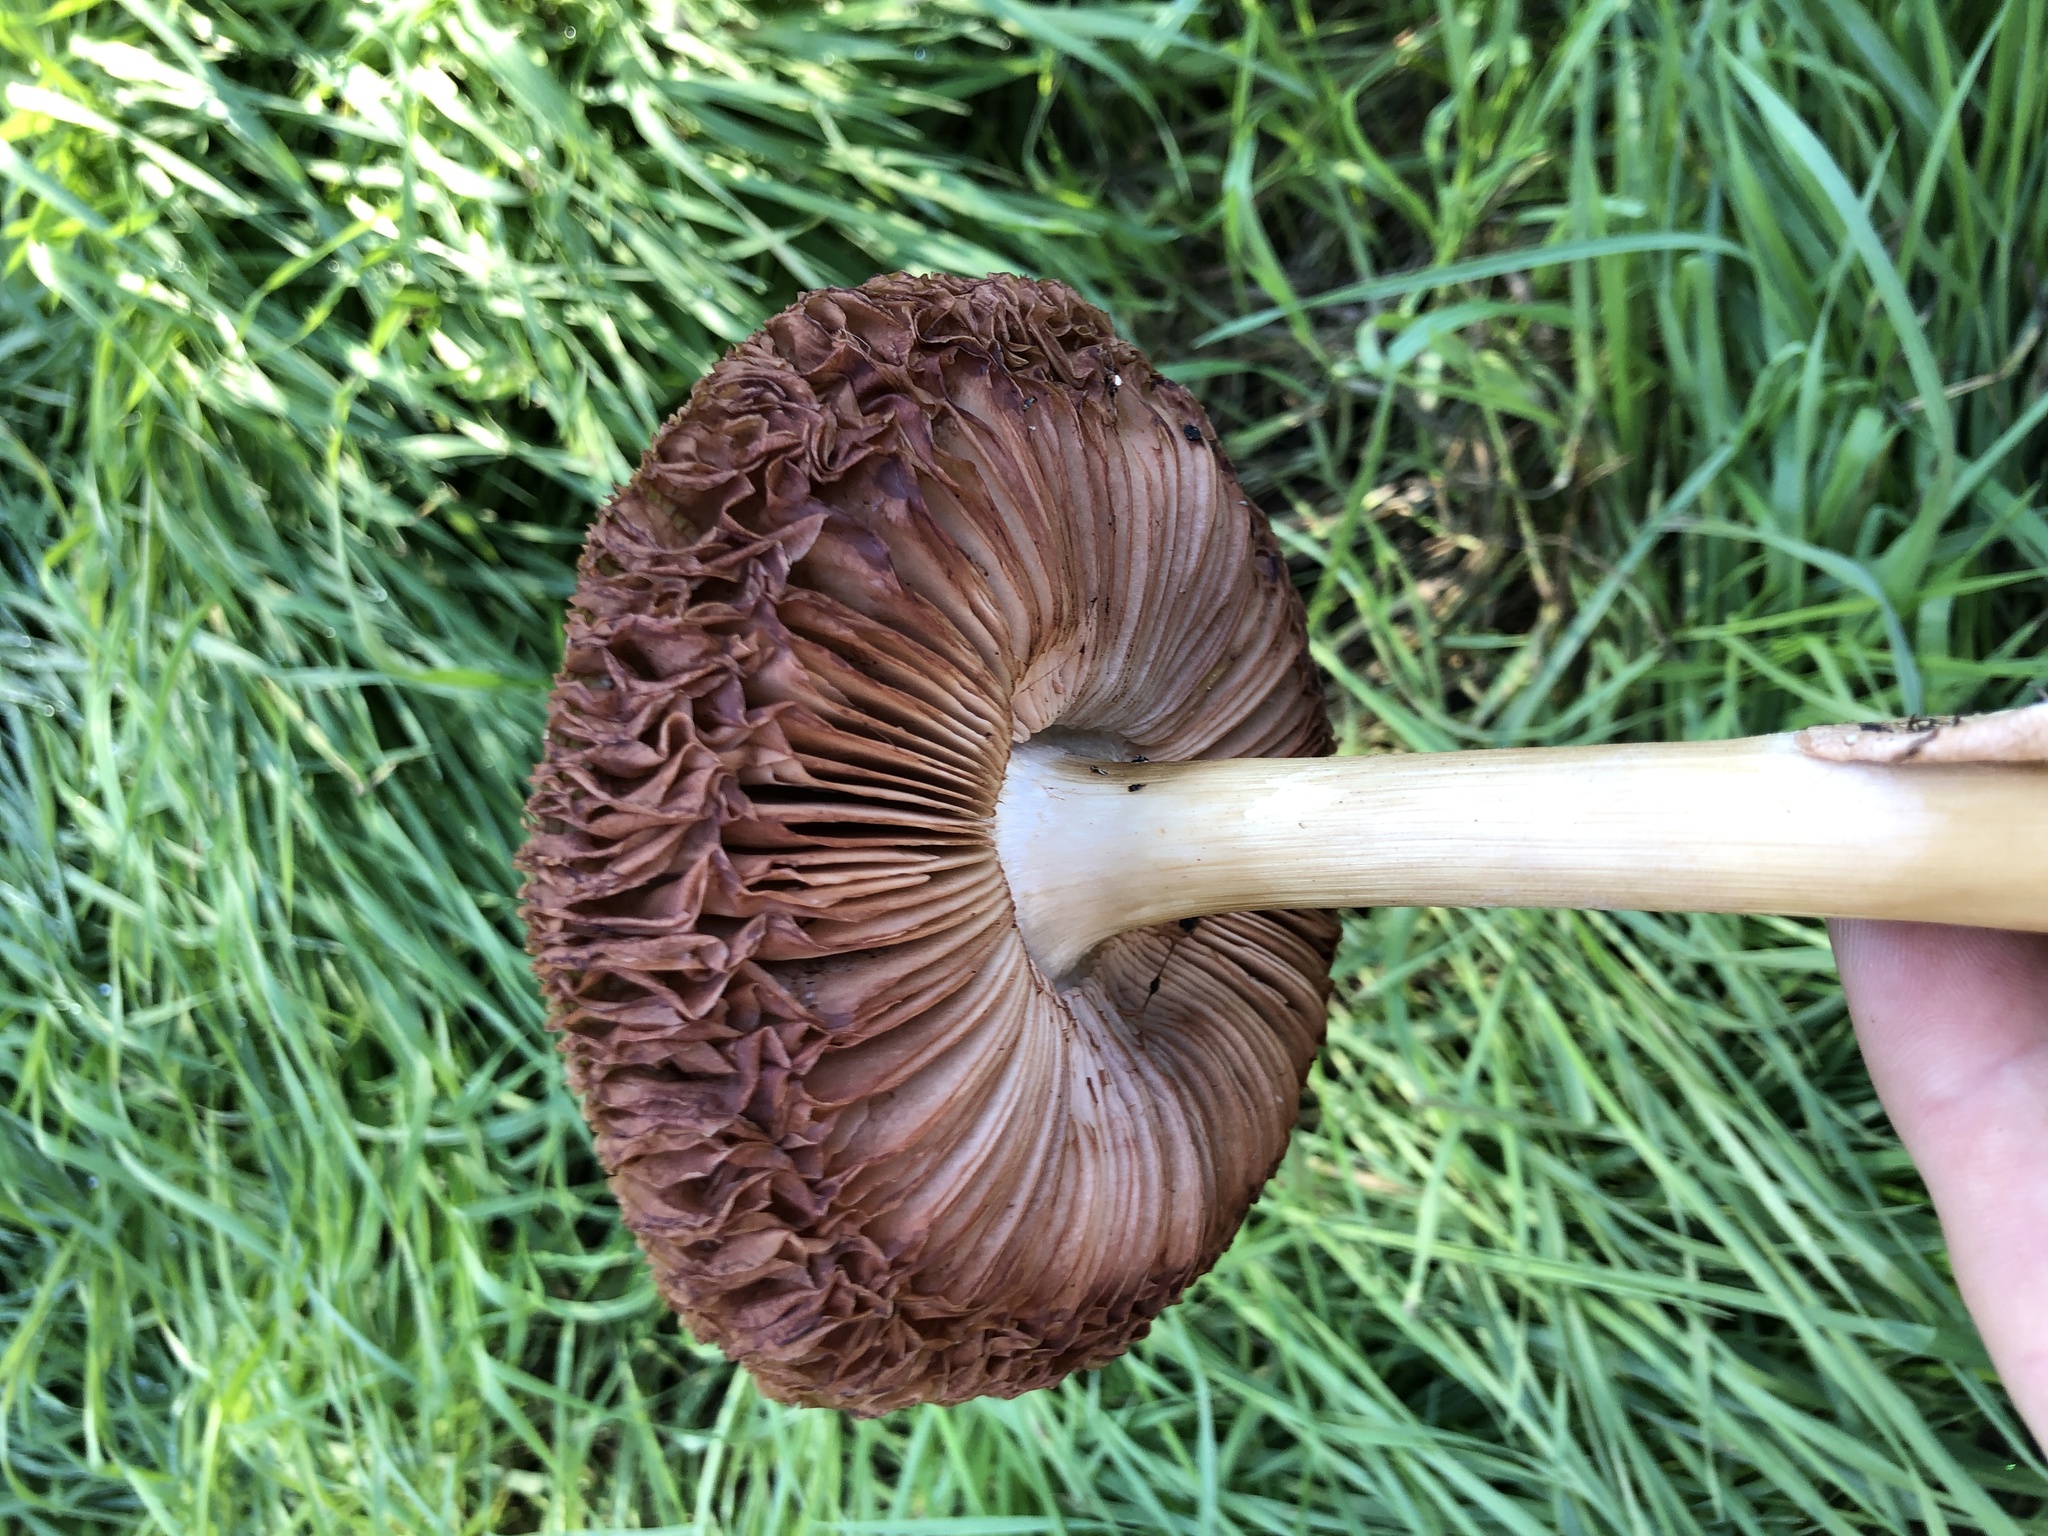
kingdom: Fungi
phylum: Basidiomycota
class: Agaricomycetes
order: Agaricales
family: Pluteaceae
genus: Volvopluteus
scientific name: Volvopluteus gloiocephalus
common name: Stubble rosegill
